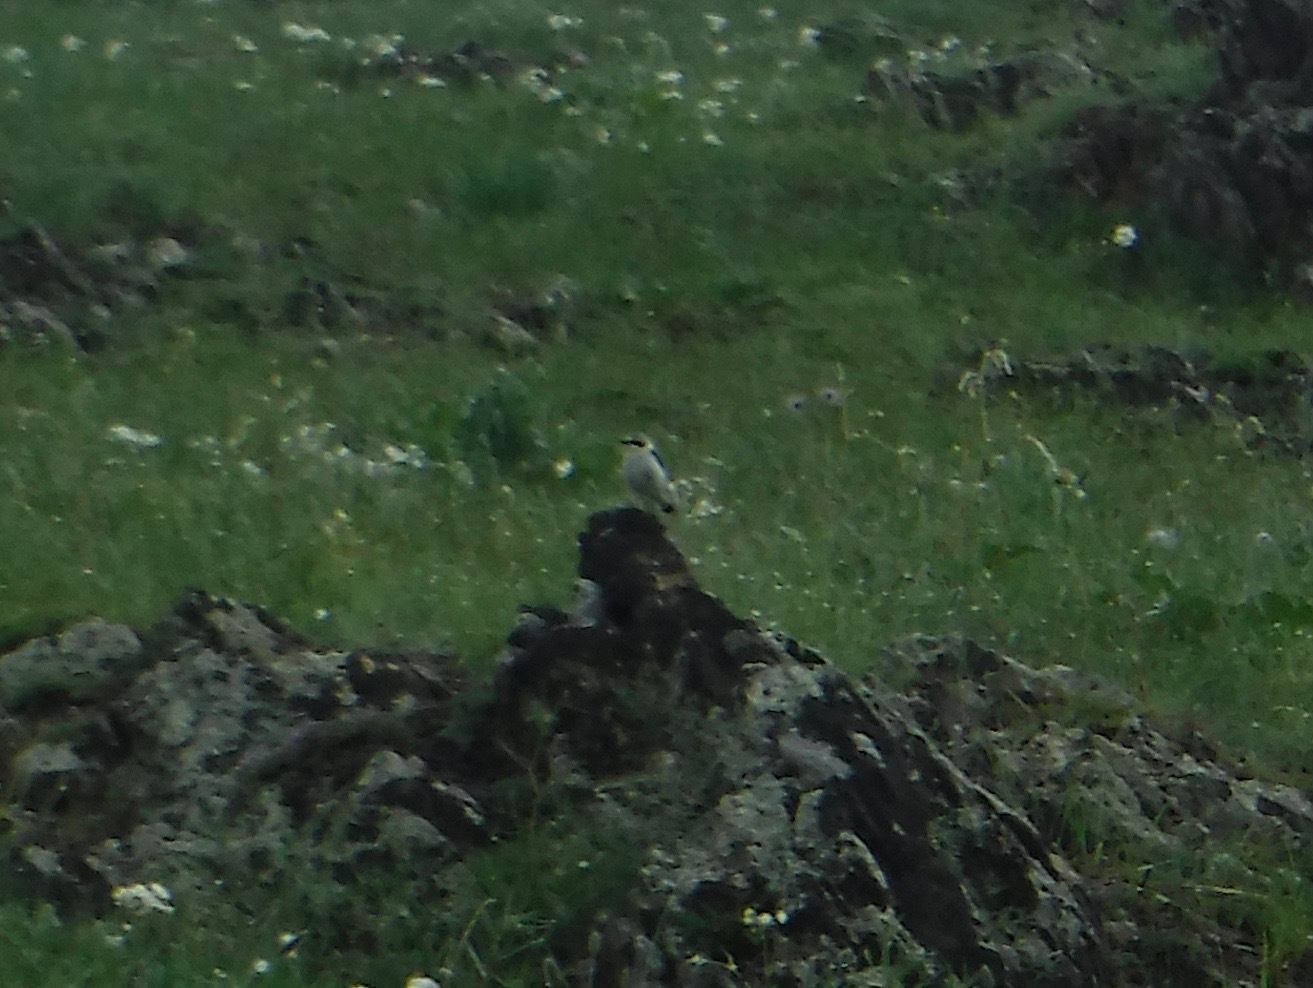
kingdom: Animalia
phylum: Chordata
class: Aves
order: Passeriformes
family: Muscicapidae
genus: Oenanthe
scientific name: Oenanthe oenanthe
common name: Northern wheatear
